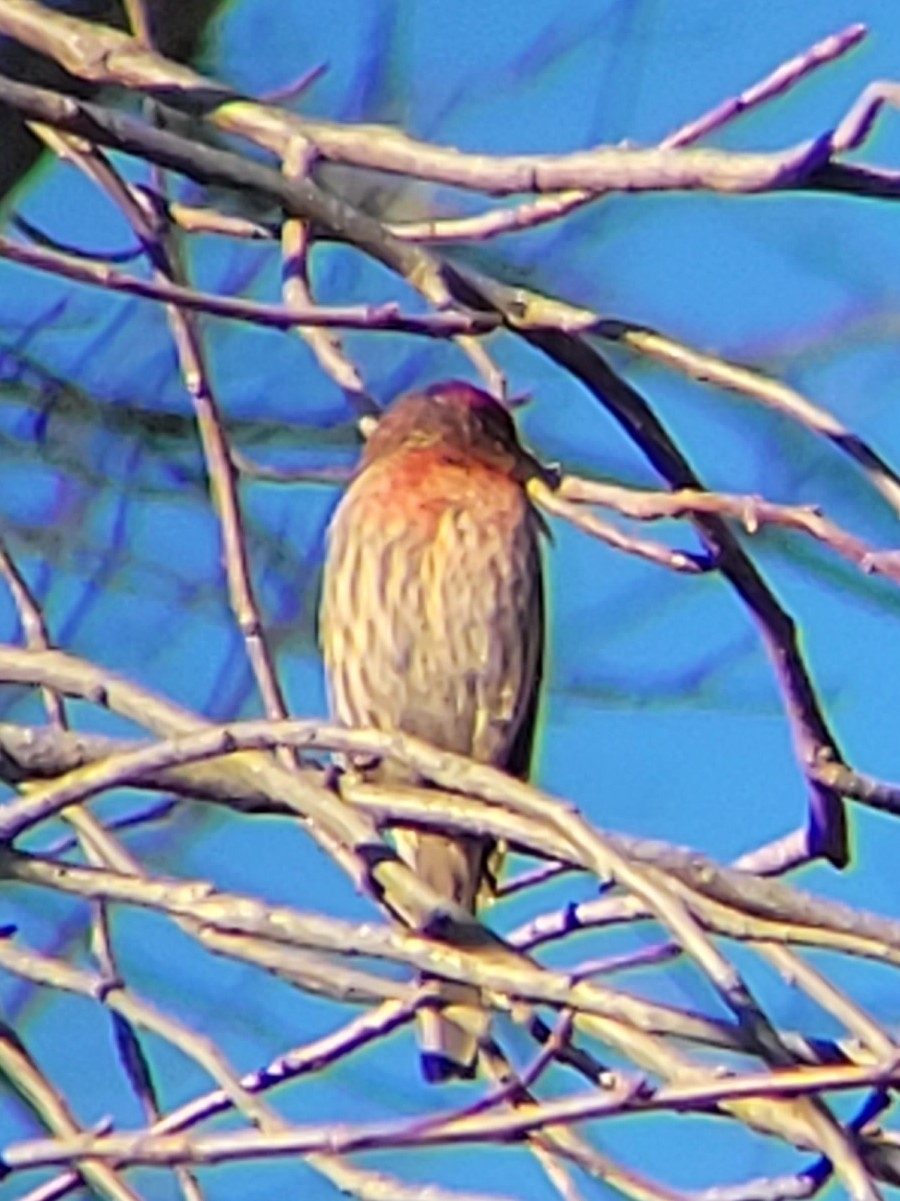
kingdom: Animalia
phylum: Chordata
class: Aves
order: Passeriformes
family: Fringillidae
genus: Haemorhous
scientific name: Haemorhous mexicanus
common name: House finch
